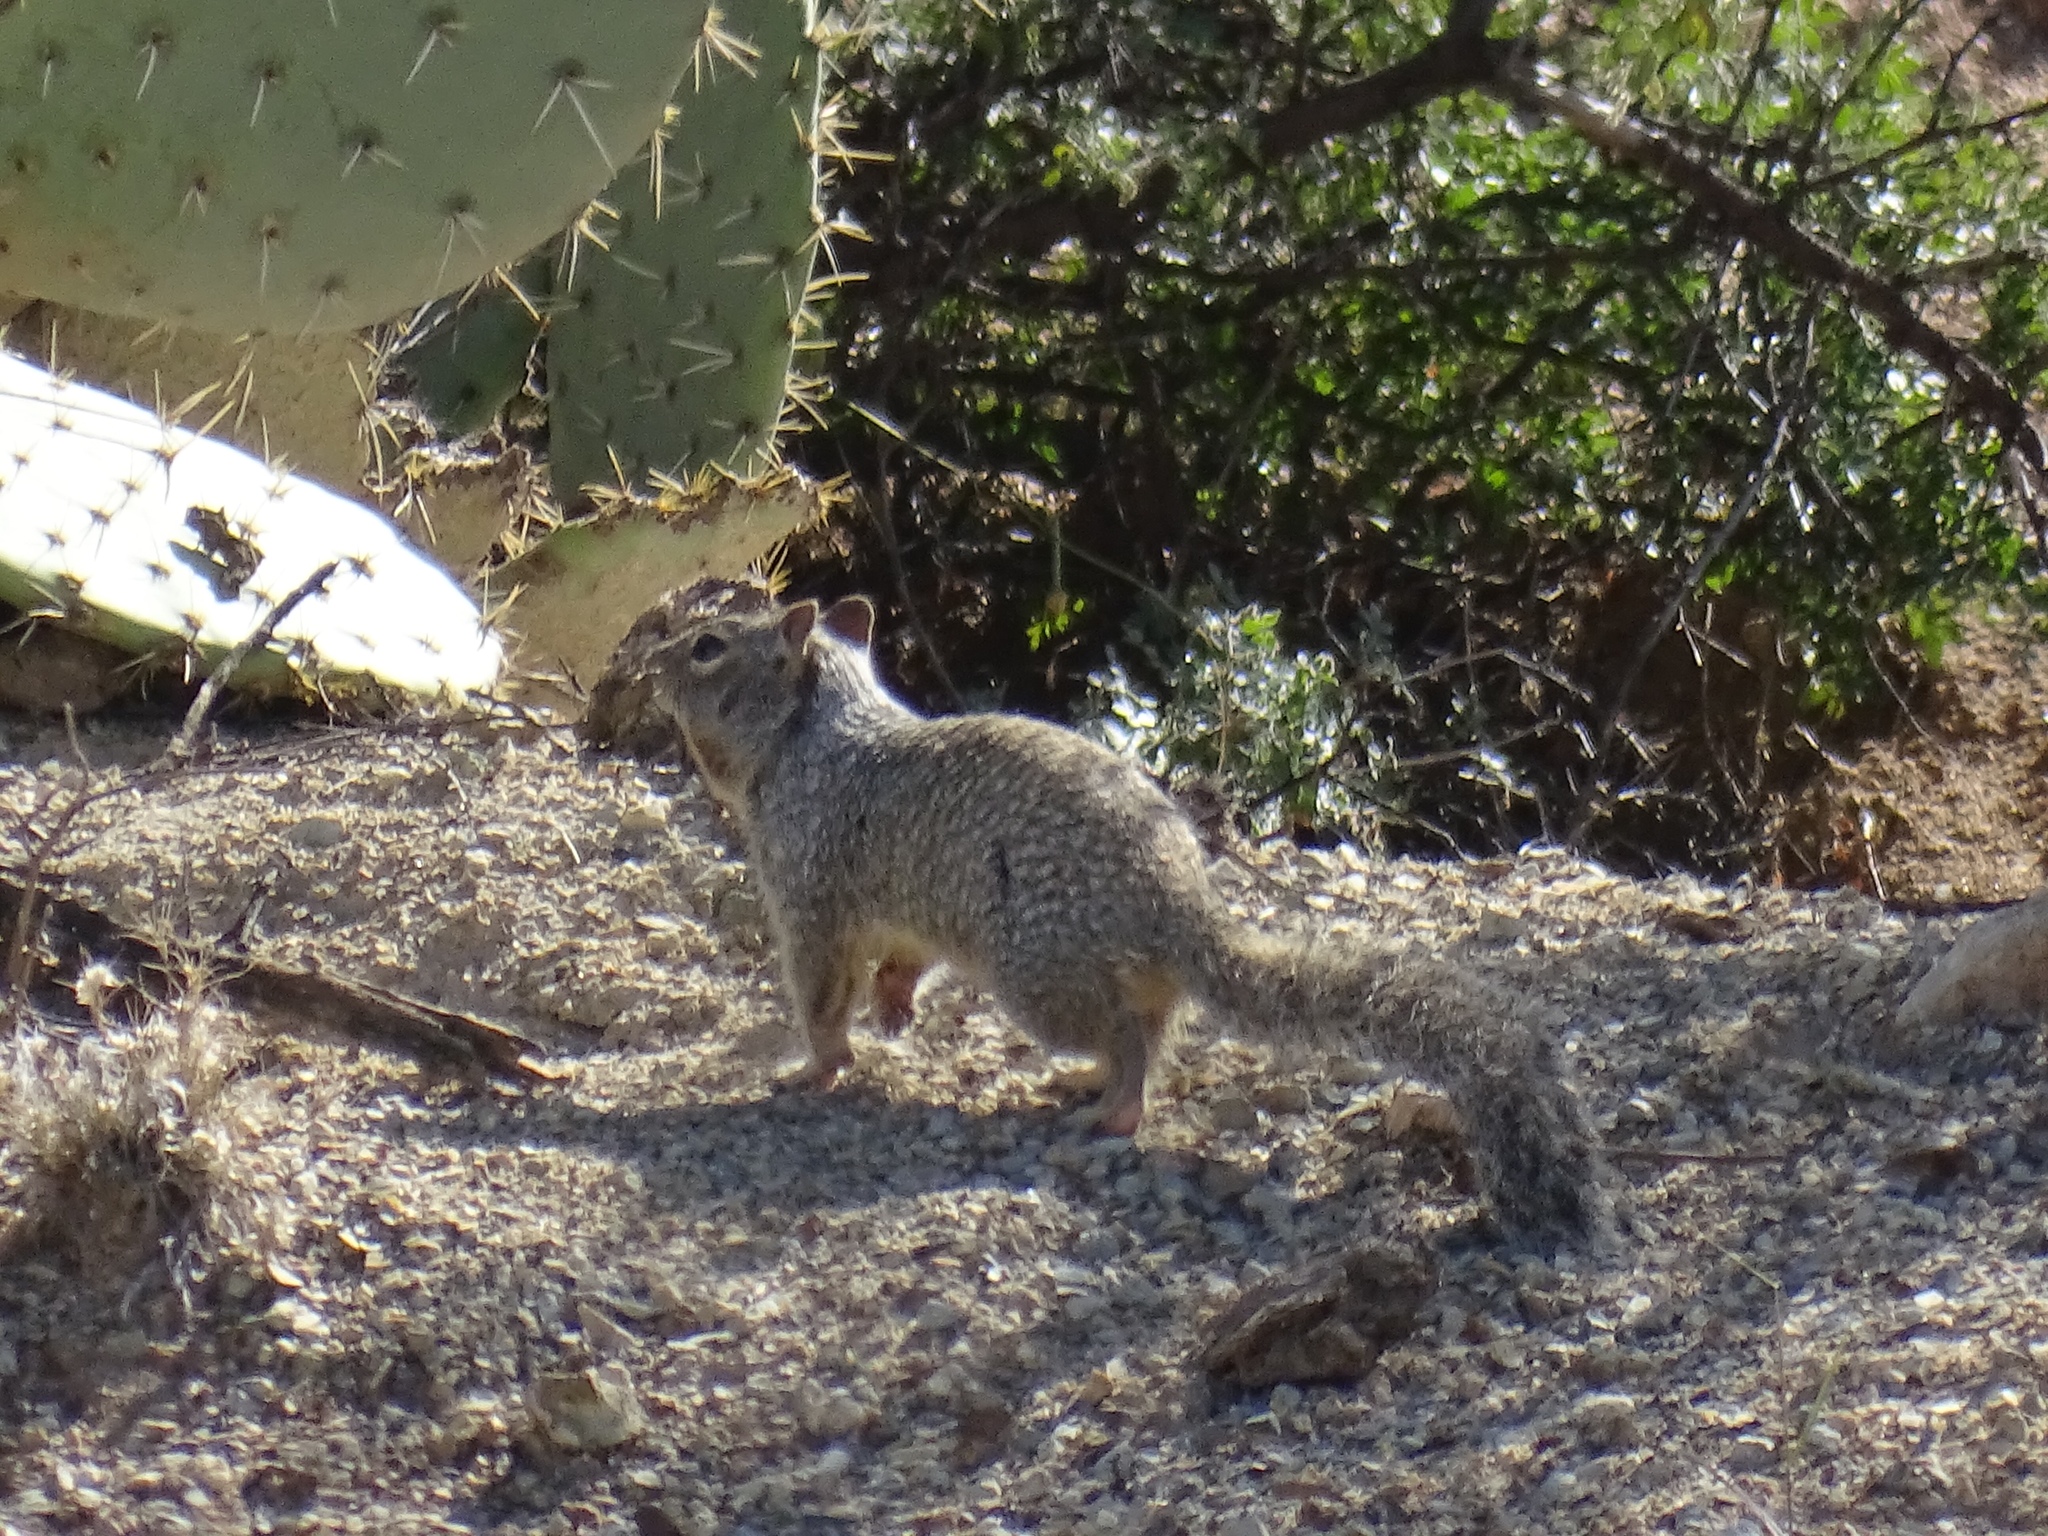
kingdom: Animalia
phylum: Chordata
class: Mammalia
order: Rodentia
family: Sciuridae
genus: Otospermophilus
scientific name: Otospermophilus variegatus
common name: Rock squirrel
